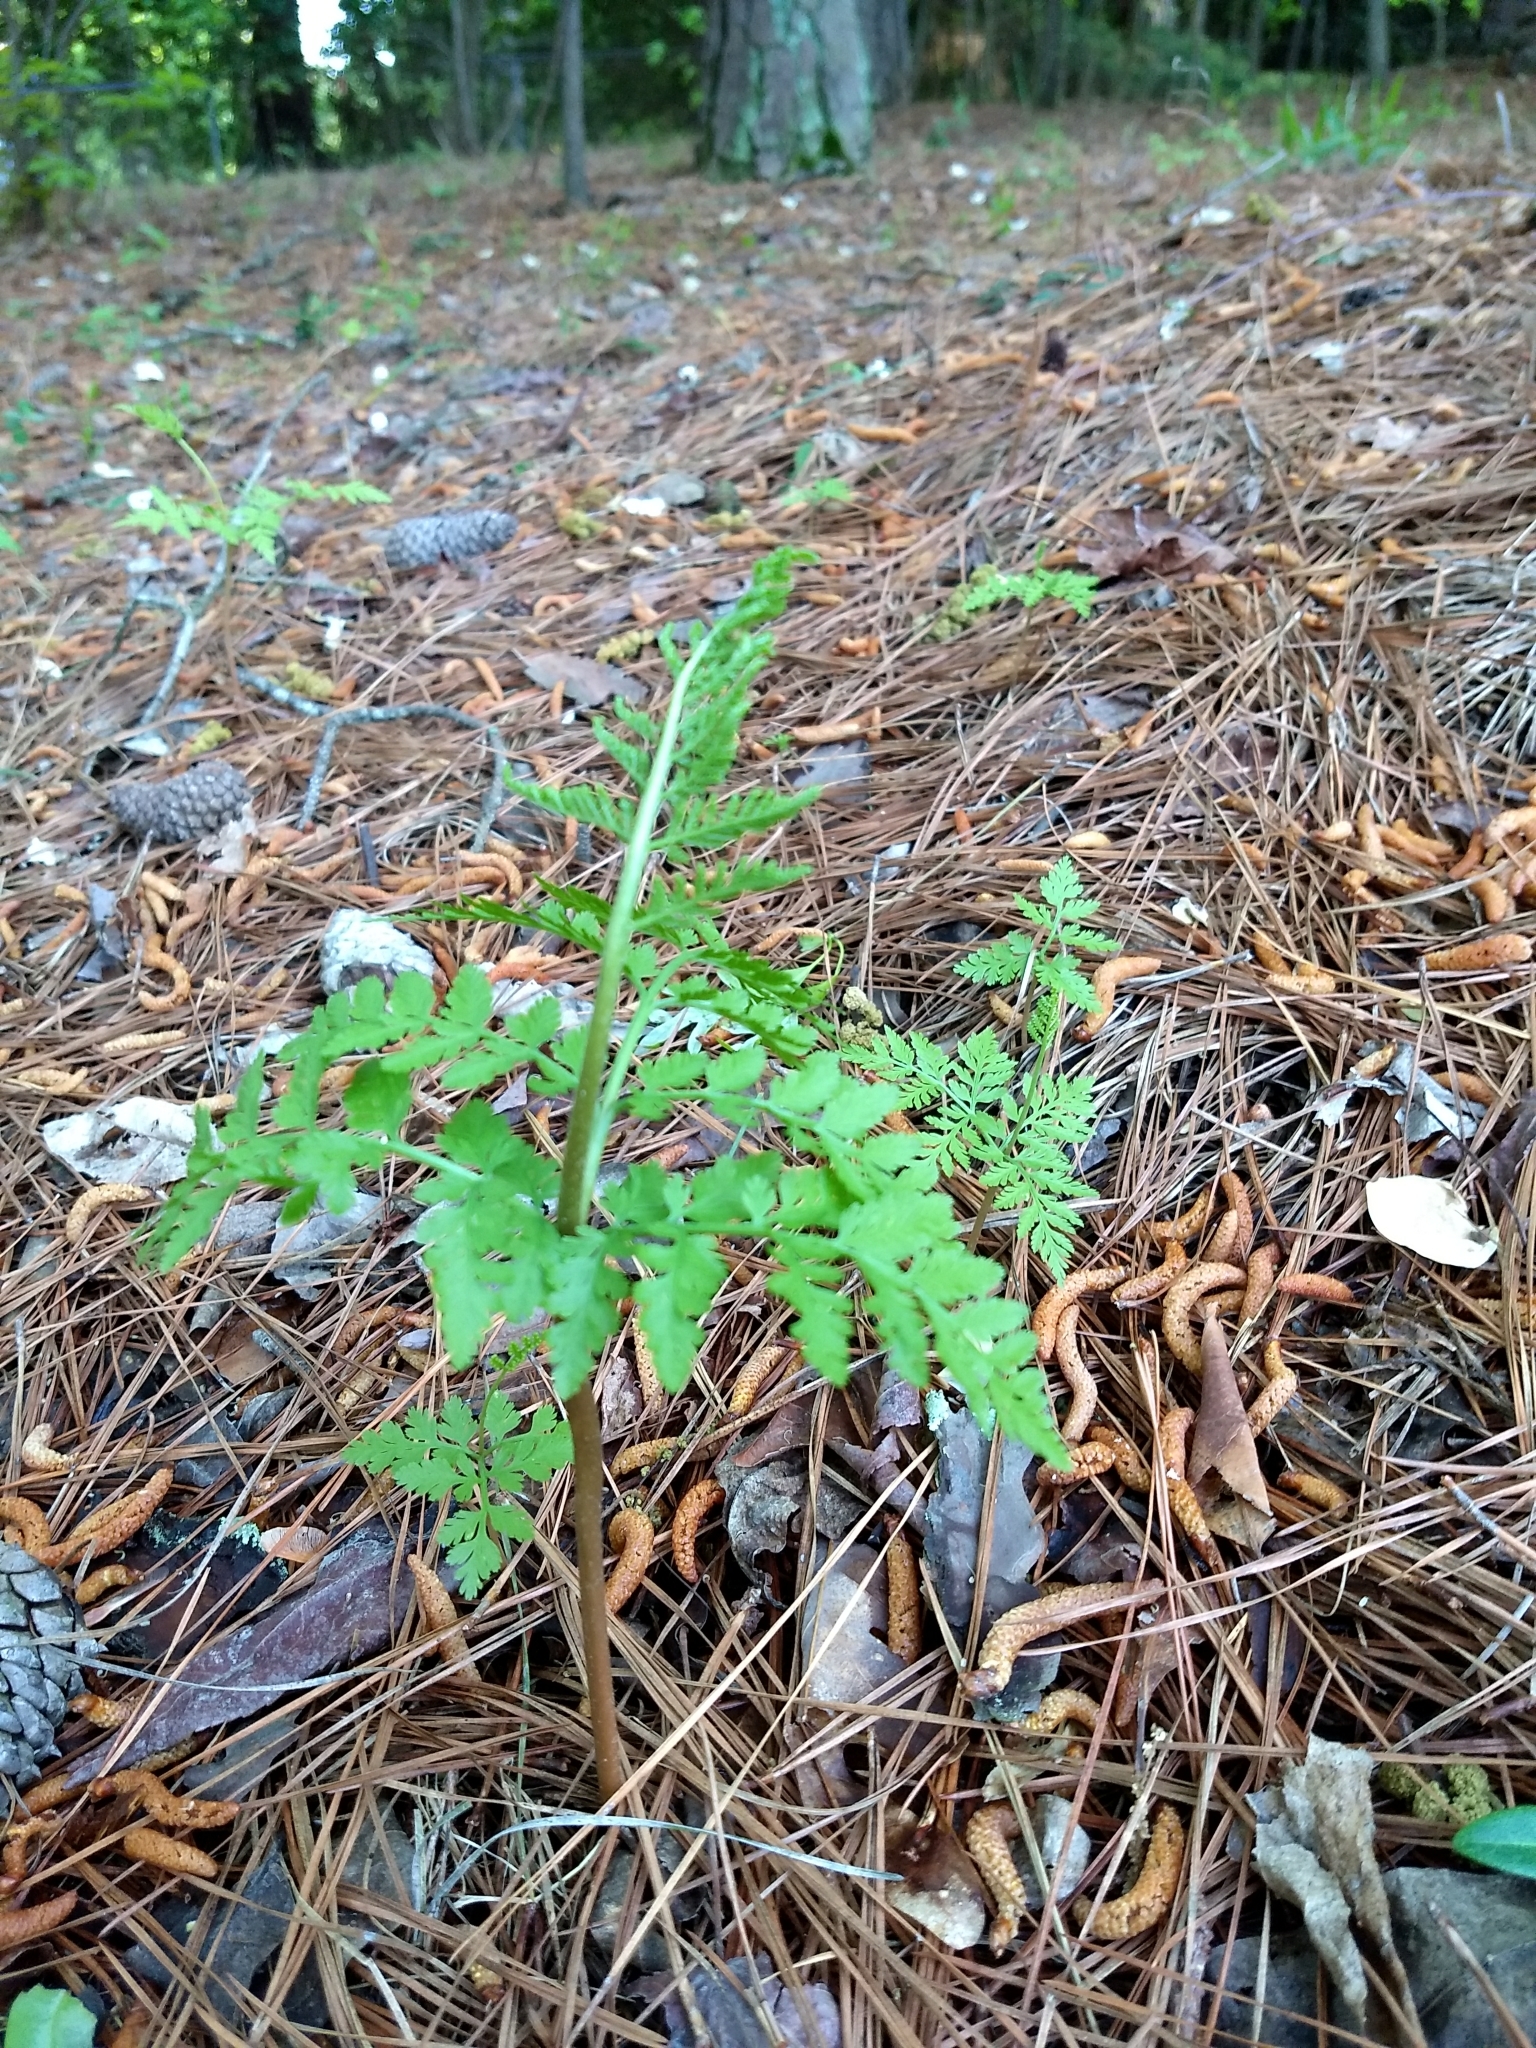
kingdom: Plantae
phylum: Tracheophyta
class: Polypodiopsida
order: Ophioglossales
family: Ophioglossaceae
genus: Botrypus
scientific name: Botrypus virginianus
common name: Common grapefern
